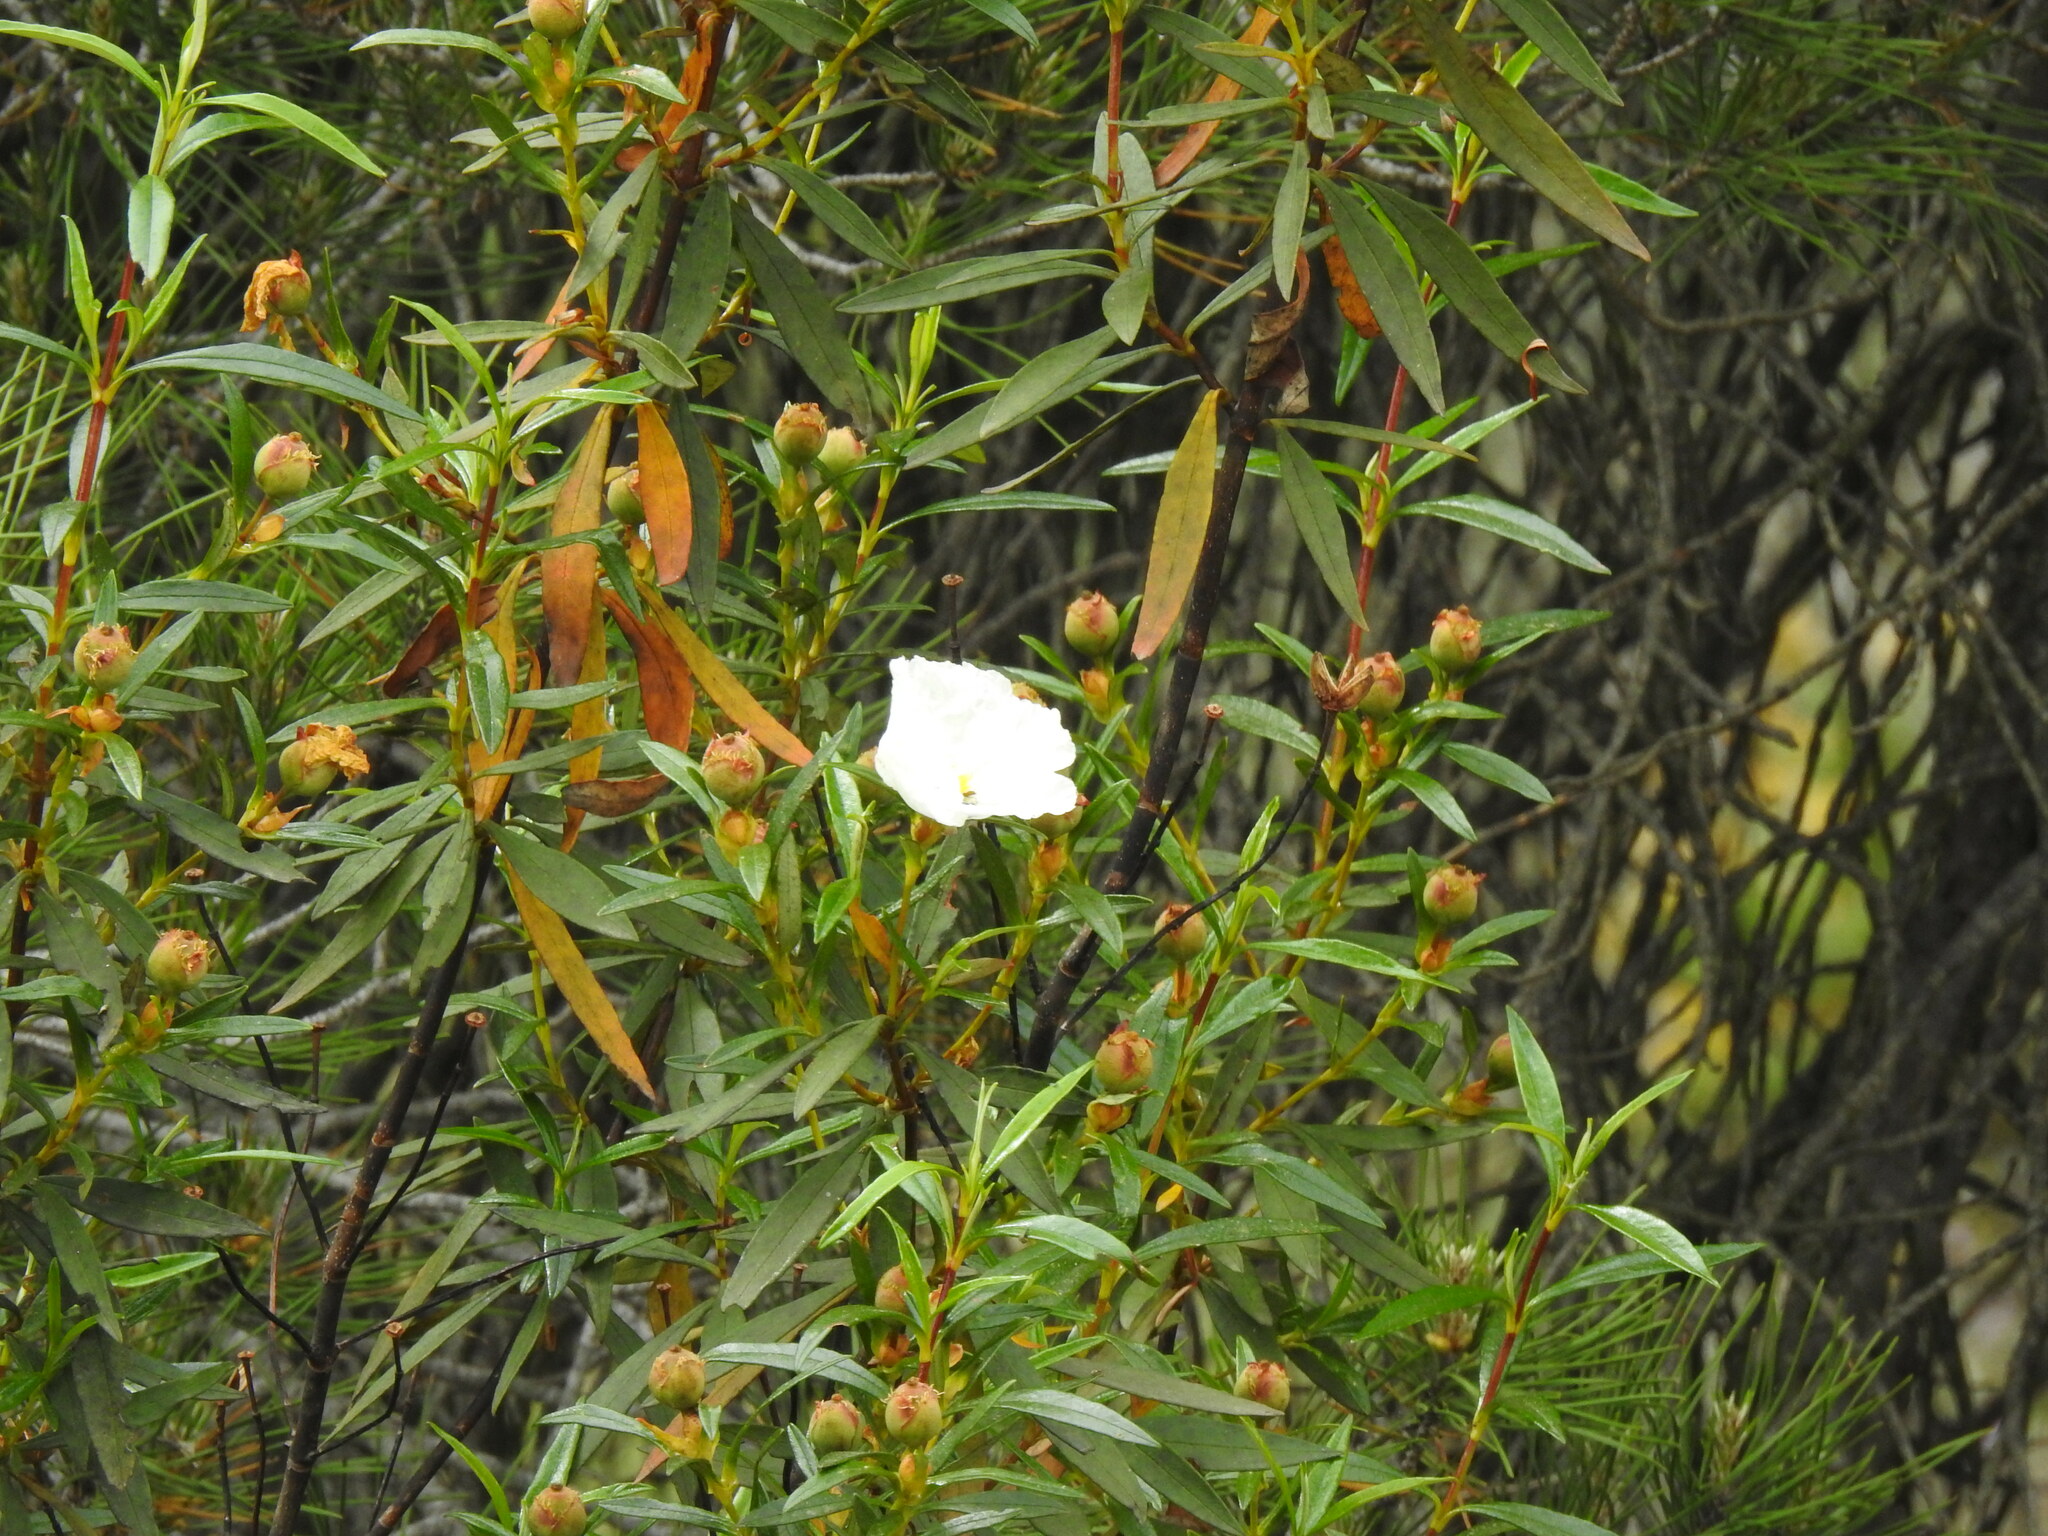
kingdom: Plantae
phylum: Tracheophyta
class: Magnoliopsida
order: Malvales
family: Cistaceae
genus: Cistus
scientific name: Cistus ladanifer
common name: Common gum cistus
